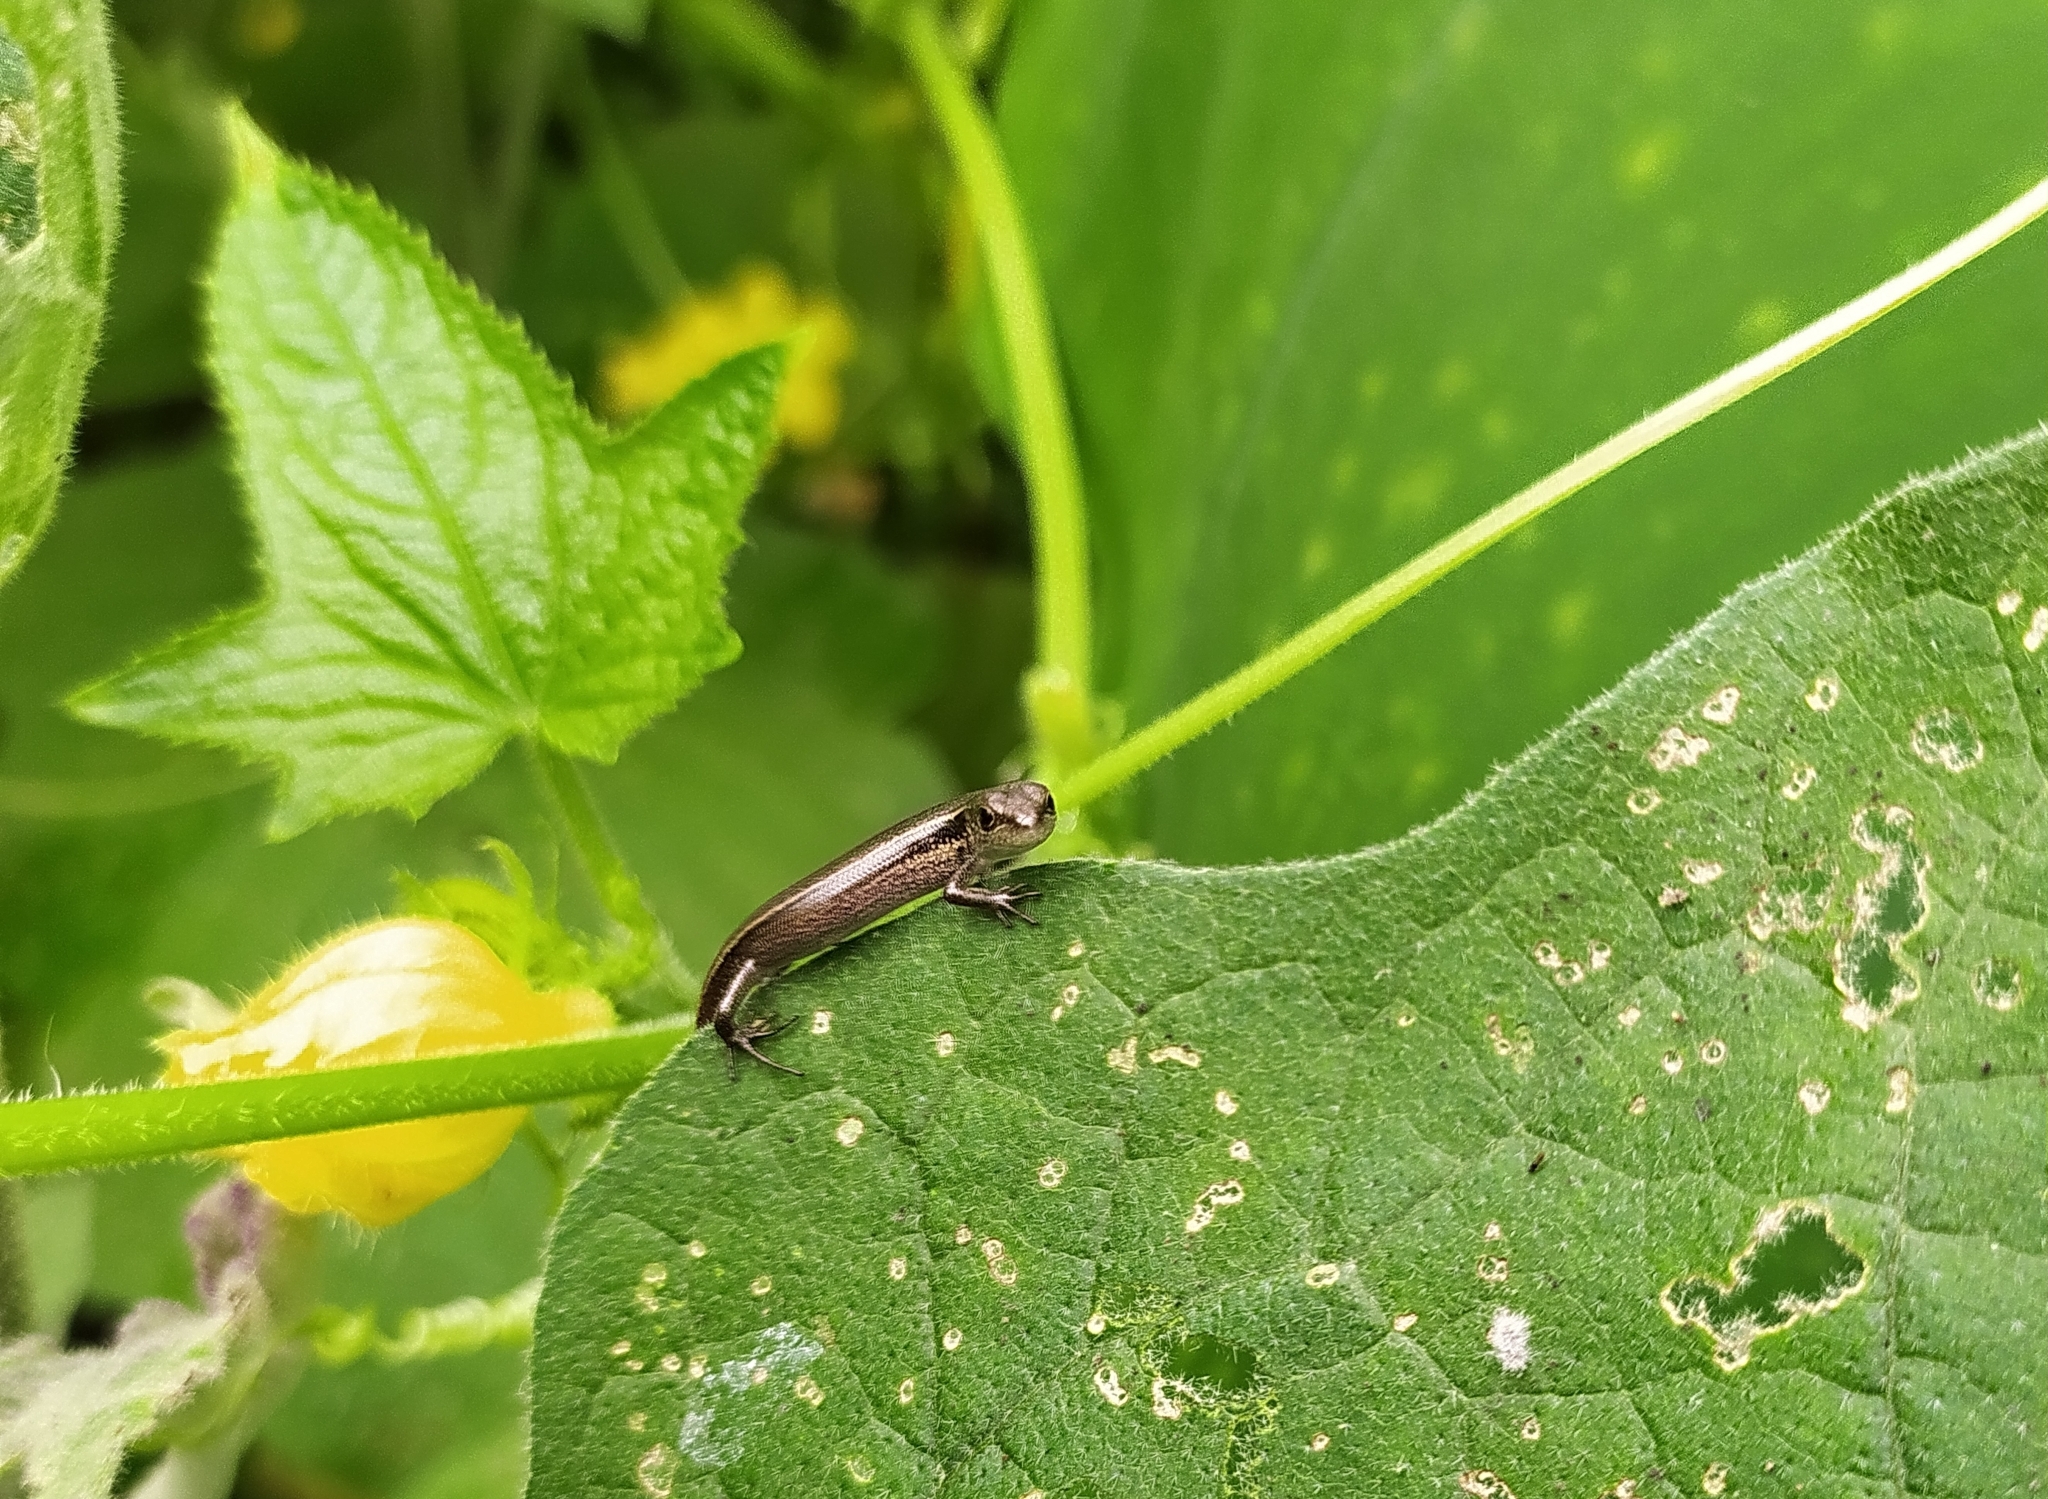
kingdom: Animalia
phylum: Chordata
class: Squamata
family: Scincidae
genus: Asymblepharus
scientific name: Asymblepharus himalayanus
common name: Himalaya ground skink
